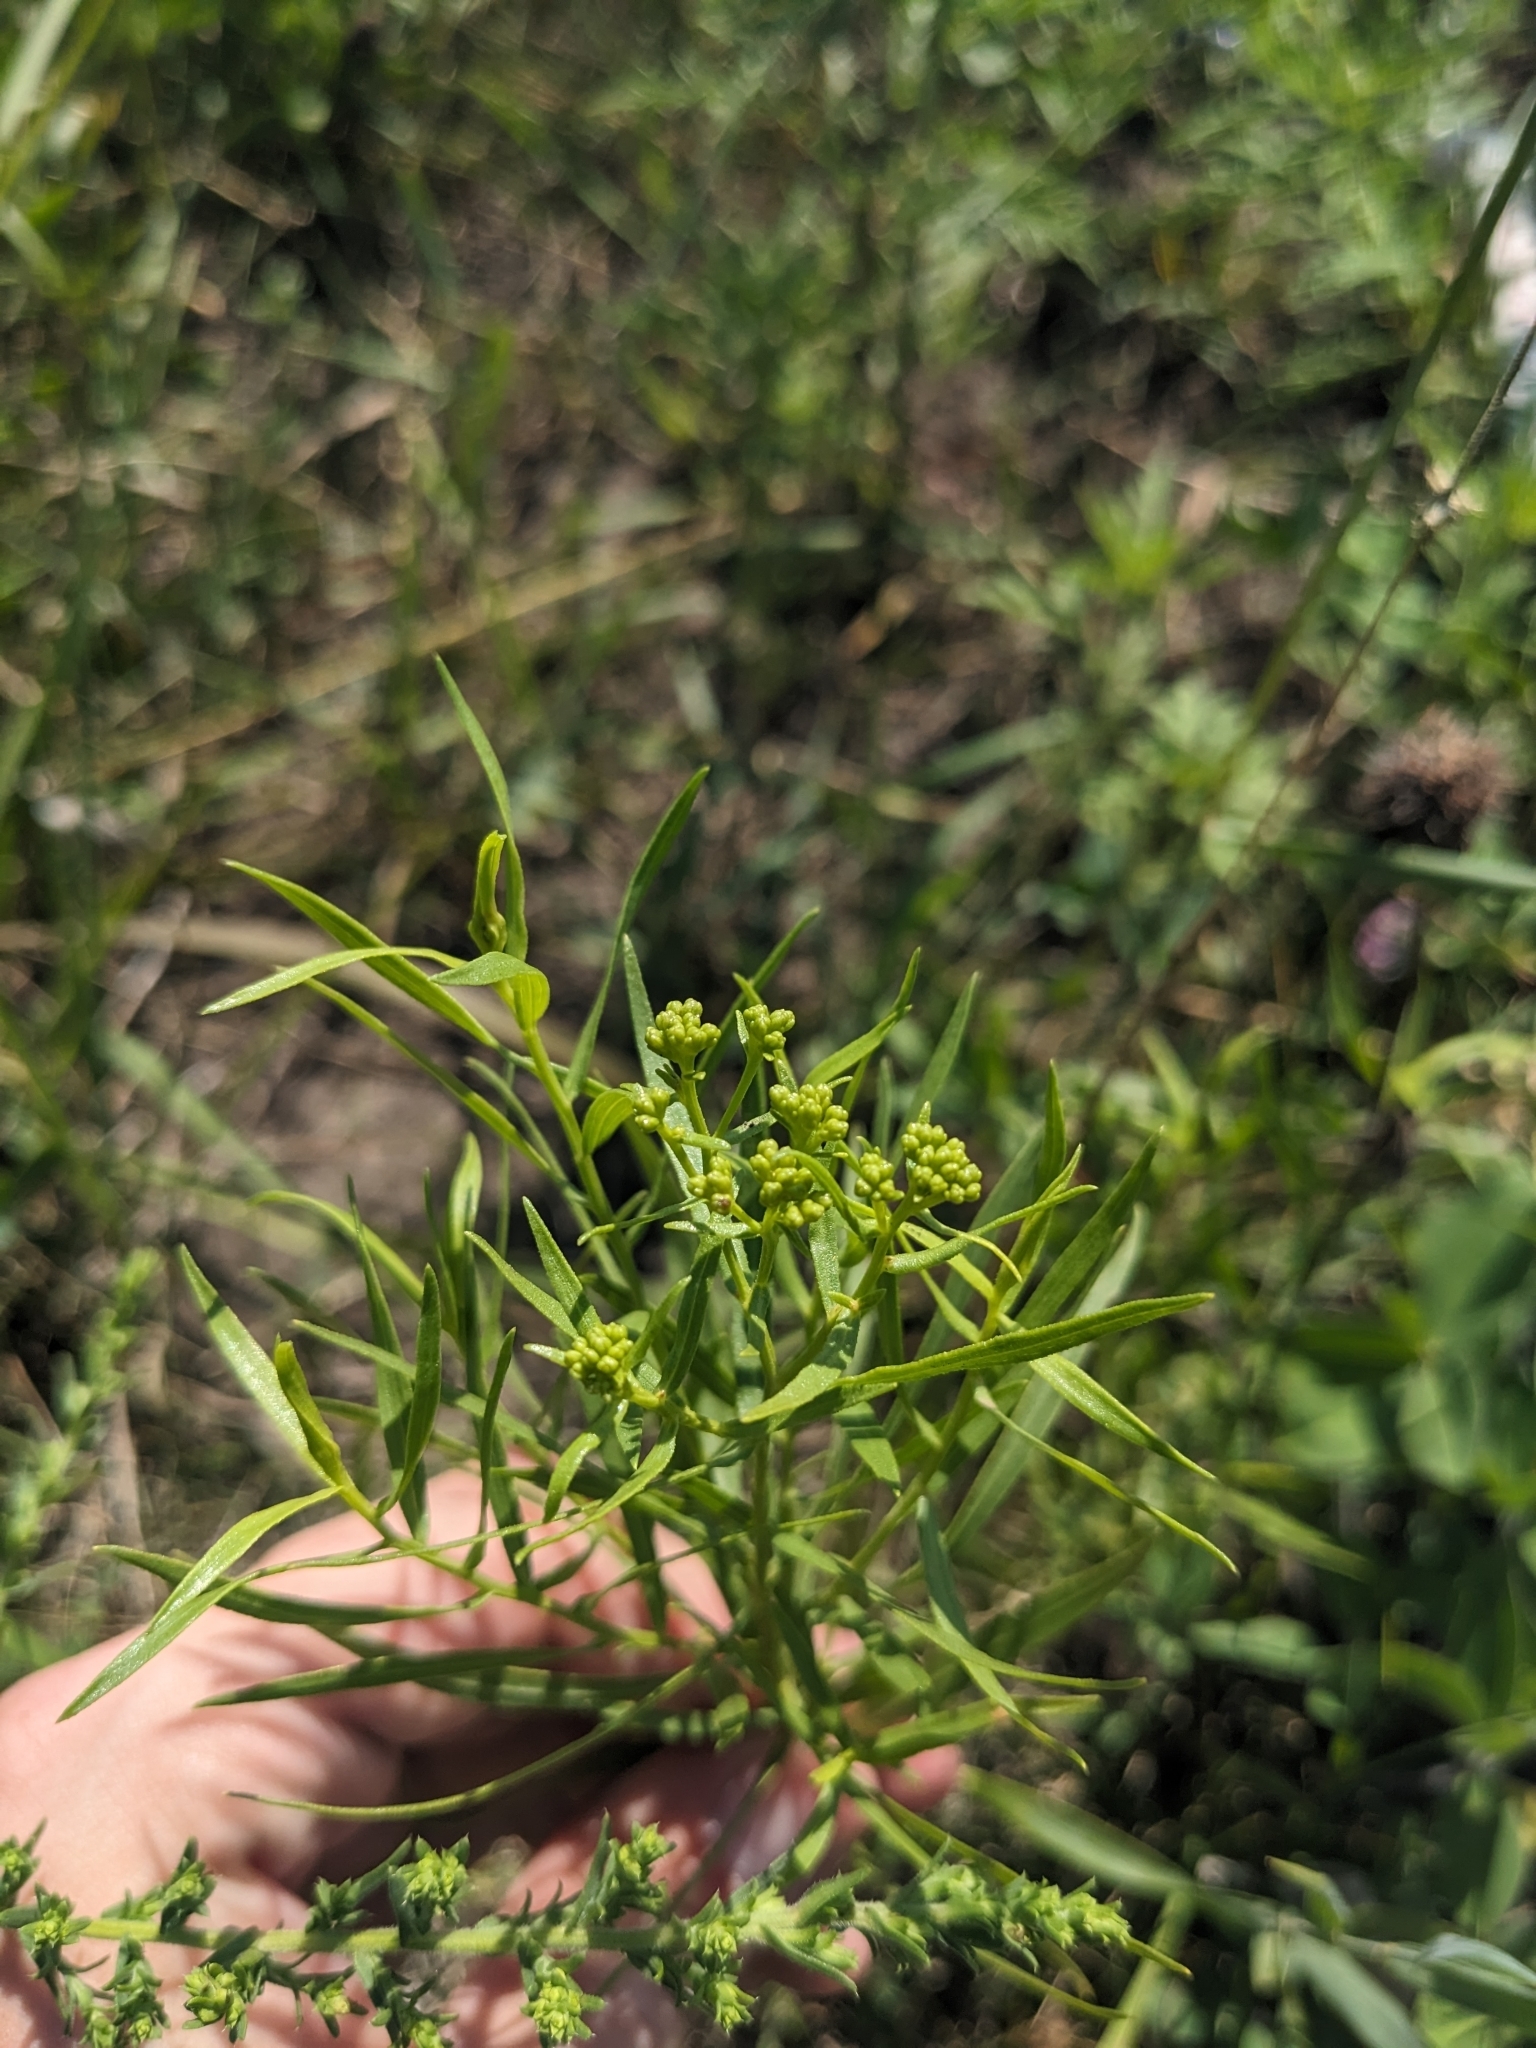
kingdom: Plantae
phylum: Tracheophyta
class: Magnoliopsida
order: Asterales
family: Asteraceae
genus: Euthamia
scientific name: Euthamia gymnospermoides
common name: Great plains goldentop
